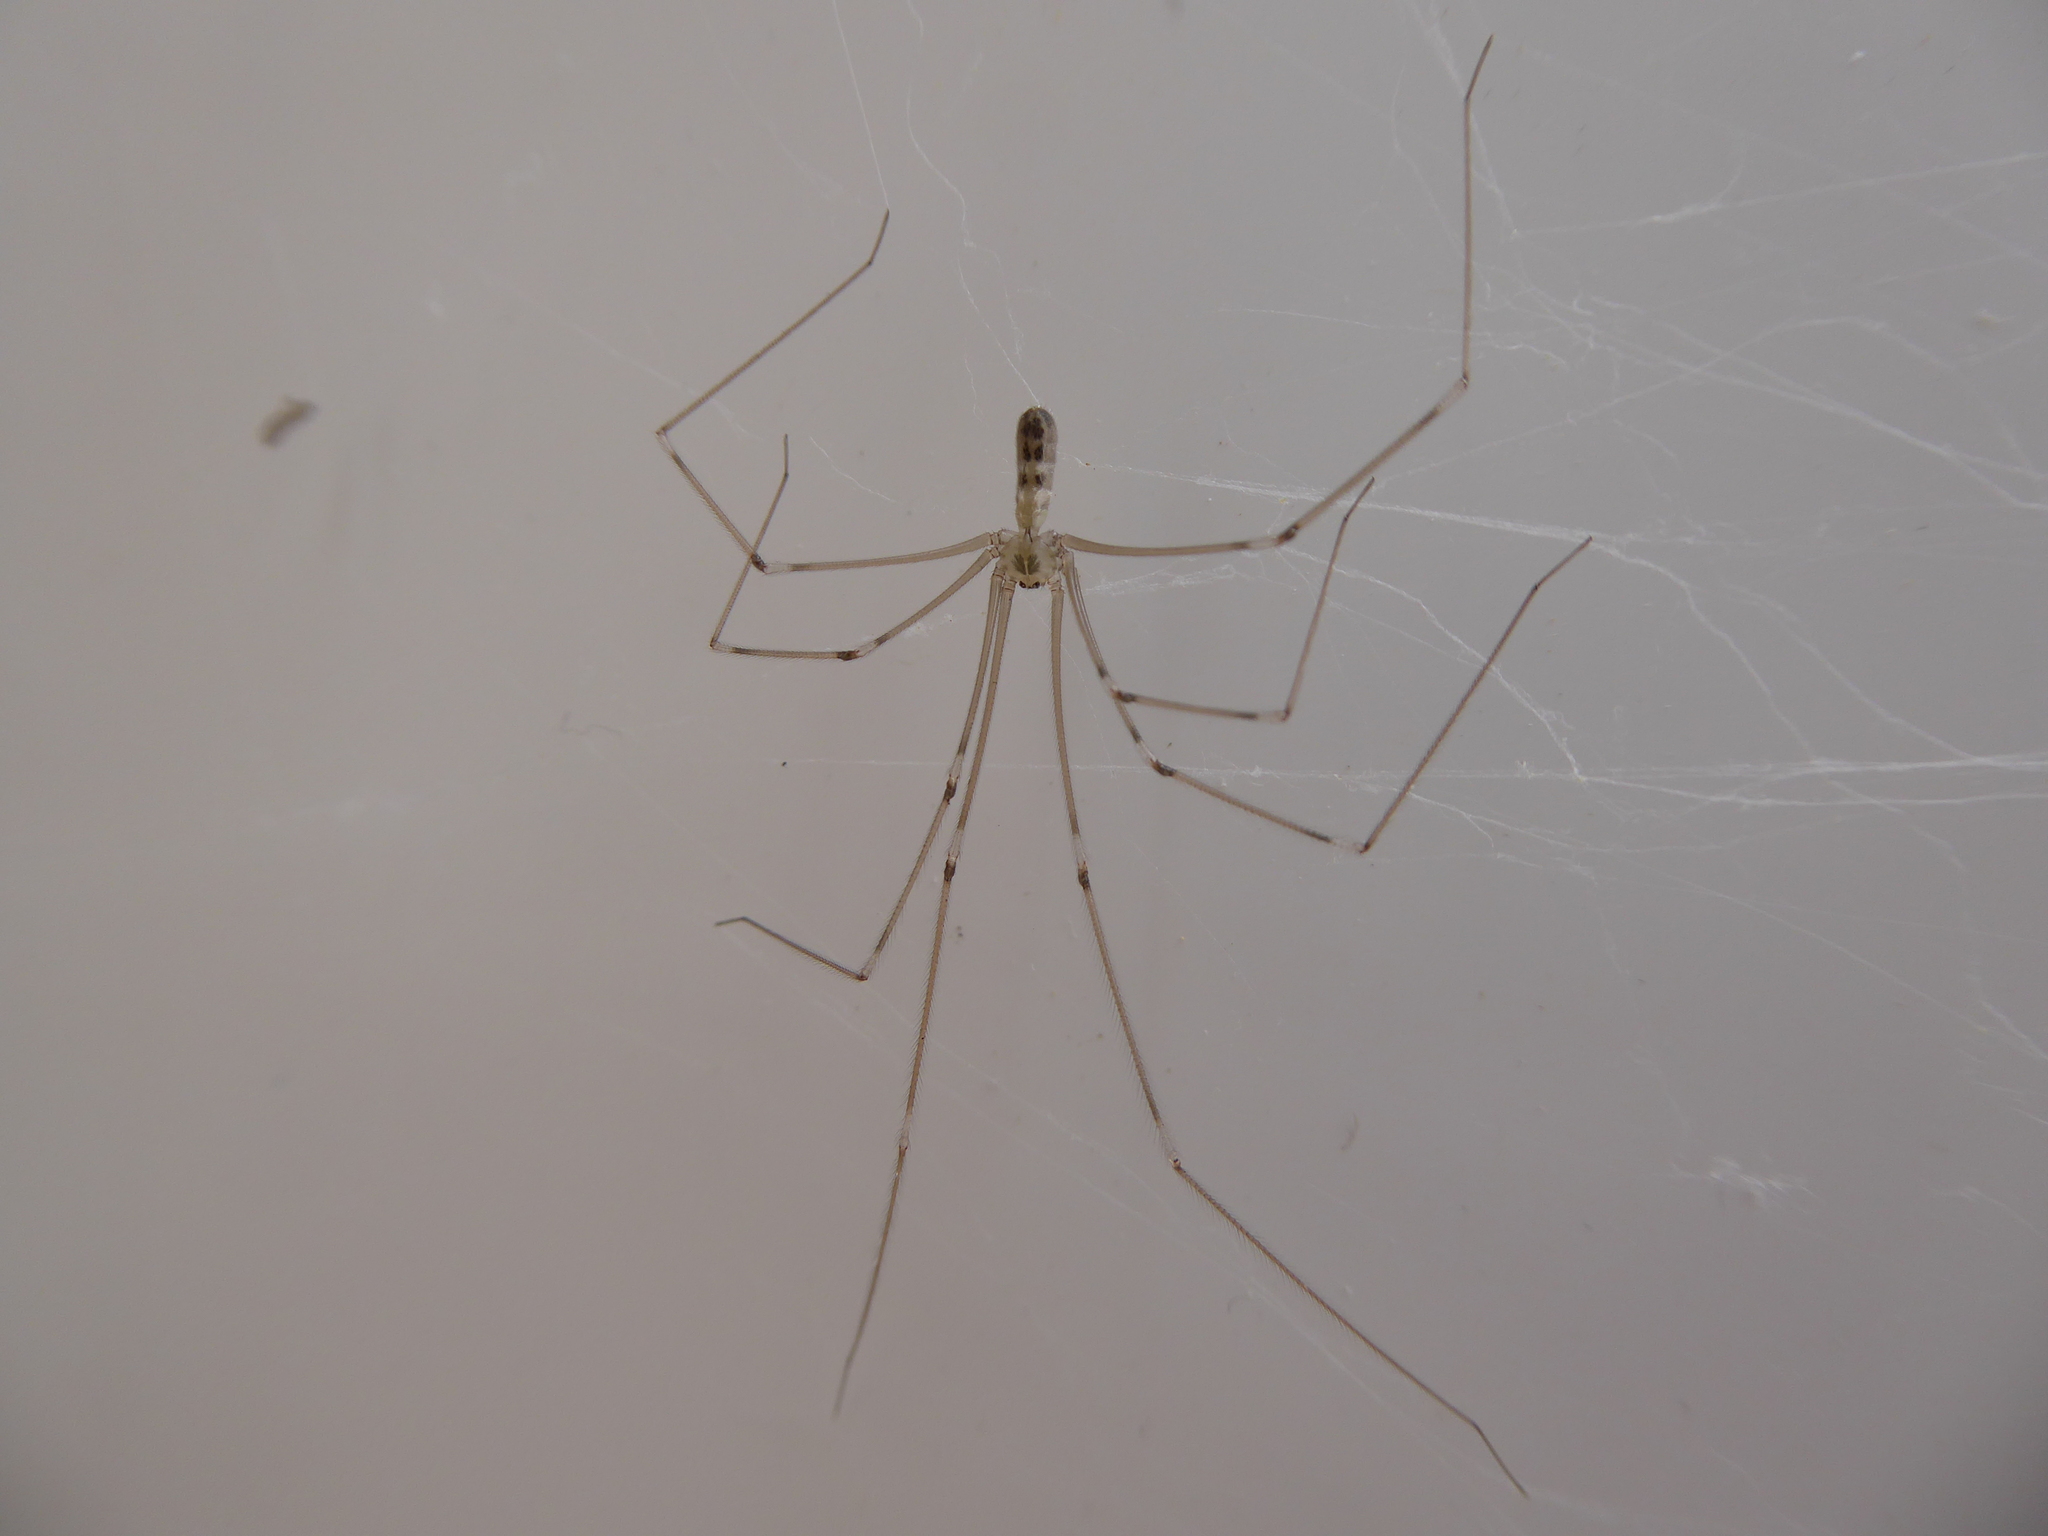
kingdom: Animalia
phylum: Arthropoda
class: Arachnida
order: Araneae
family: Pholcidae
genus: Pholcus
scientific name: Pholcus phalangioides
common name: Longbodied cellar spider
